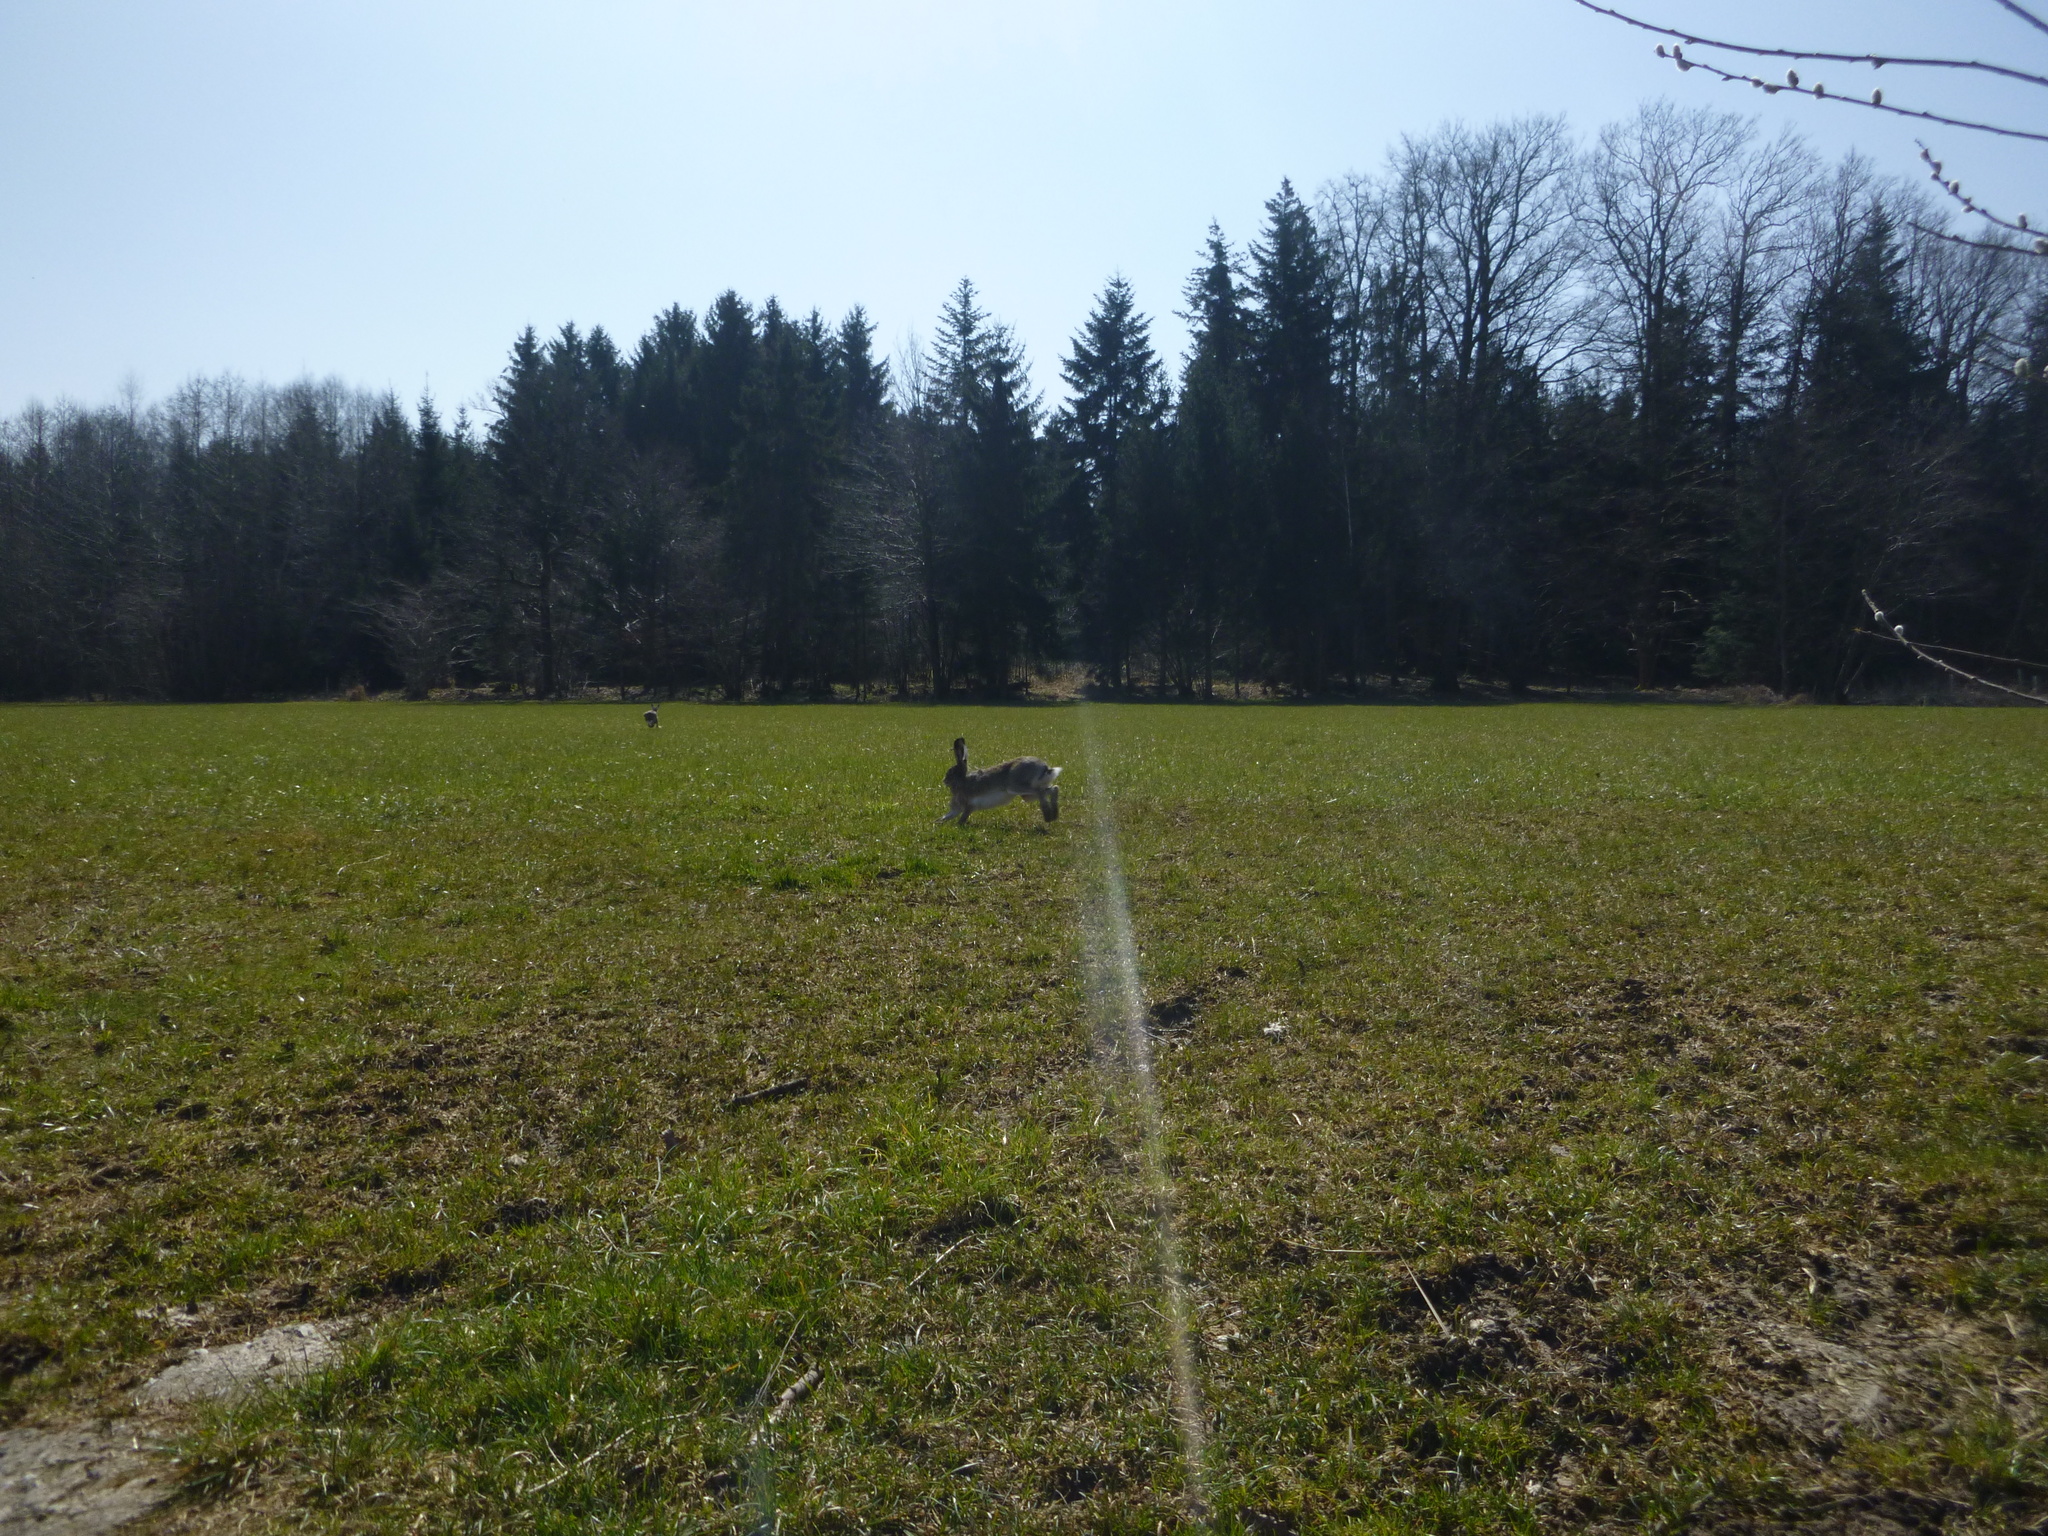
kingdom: Animalia
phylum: Chordata
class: Mammalia
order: Lagomorpha
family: Leporidae
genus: Lepus
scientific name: Lepus europaeus
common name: European hare
